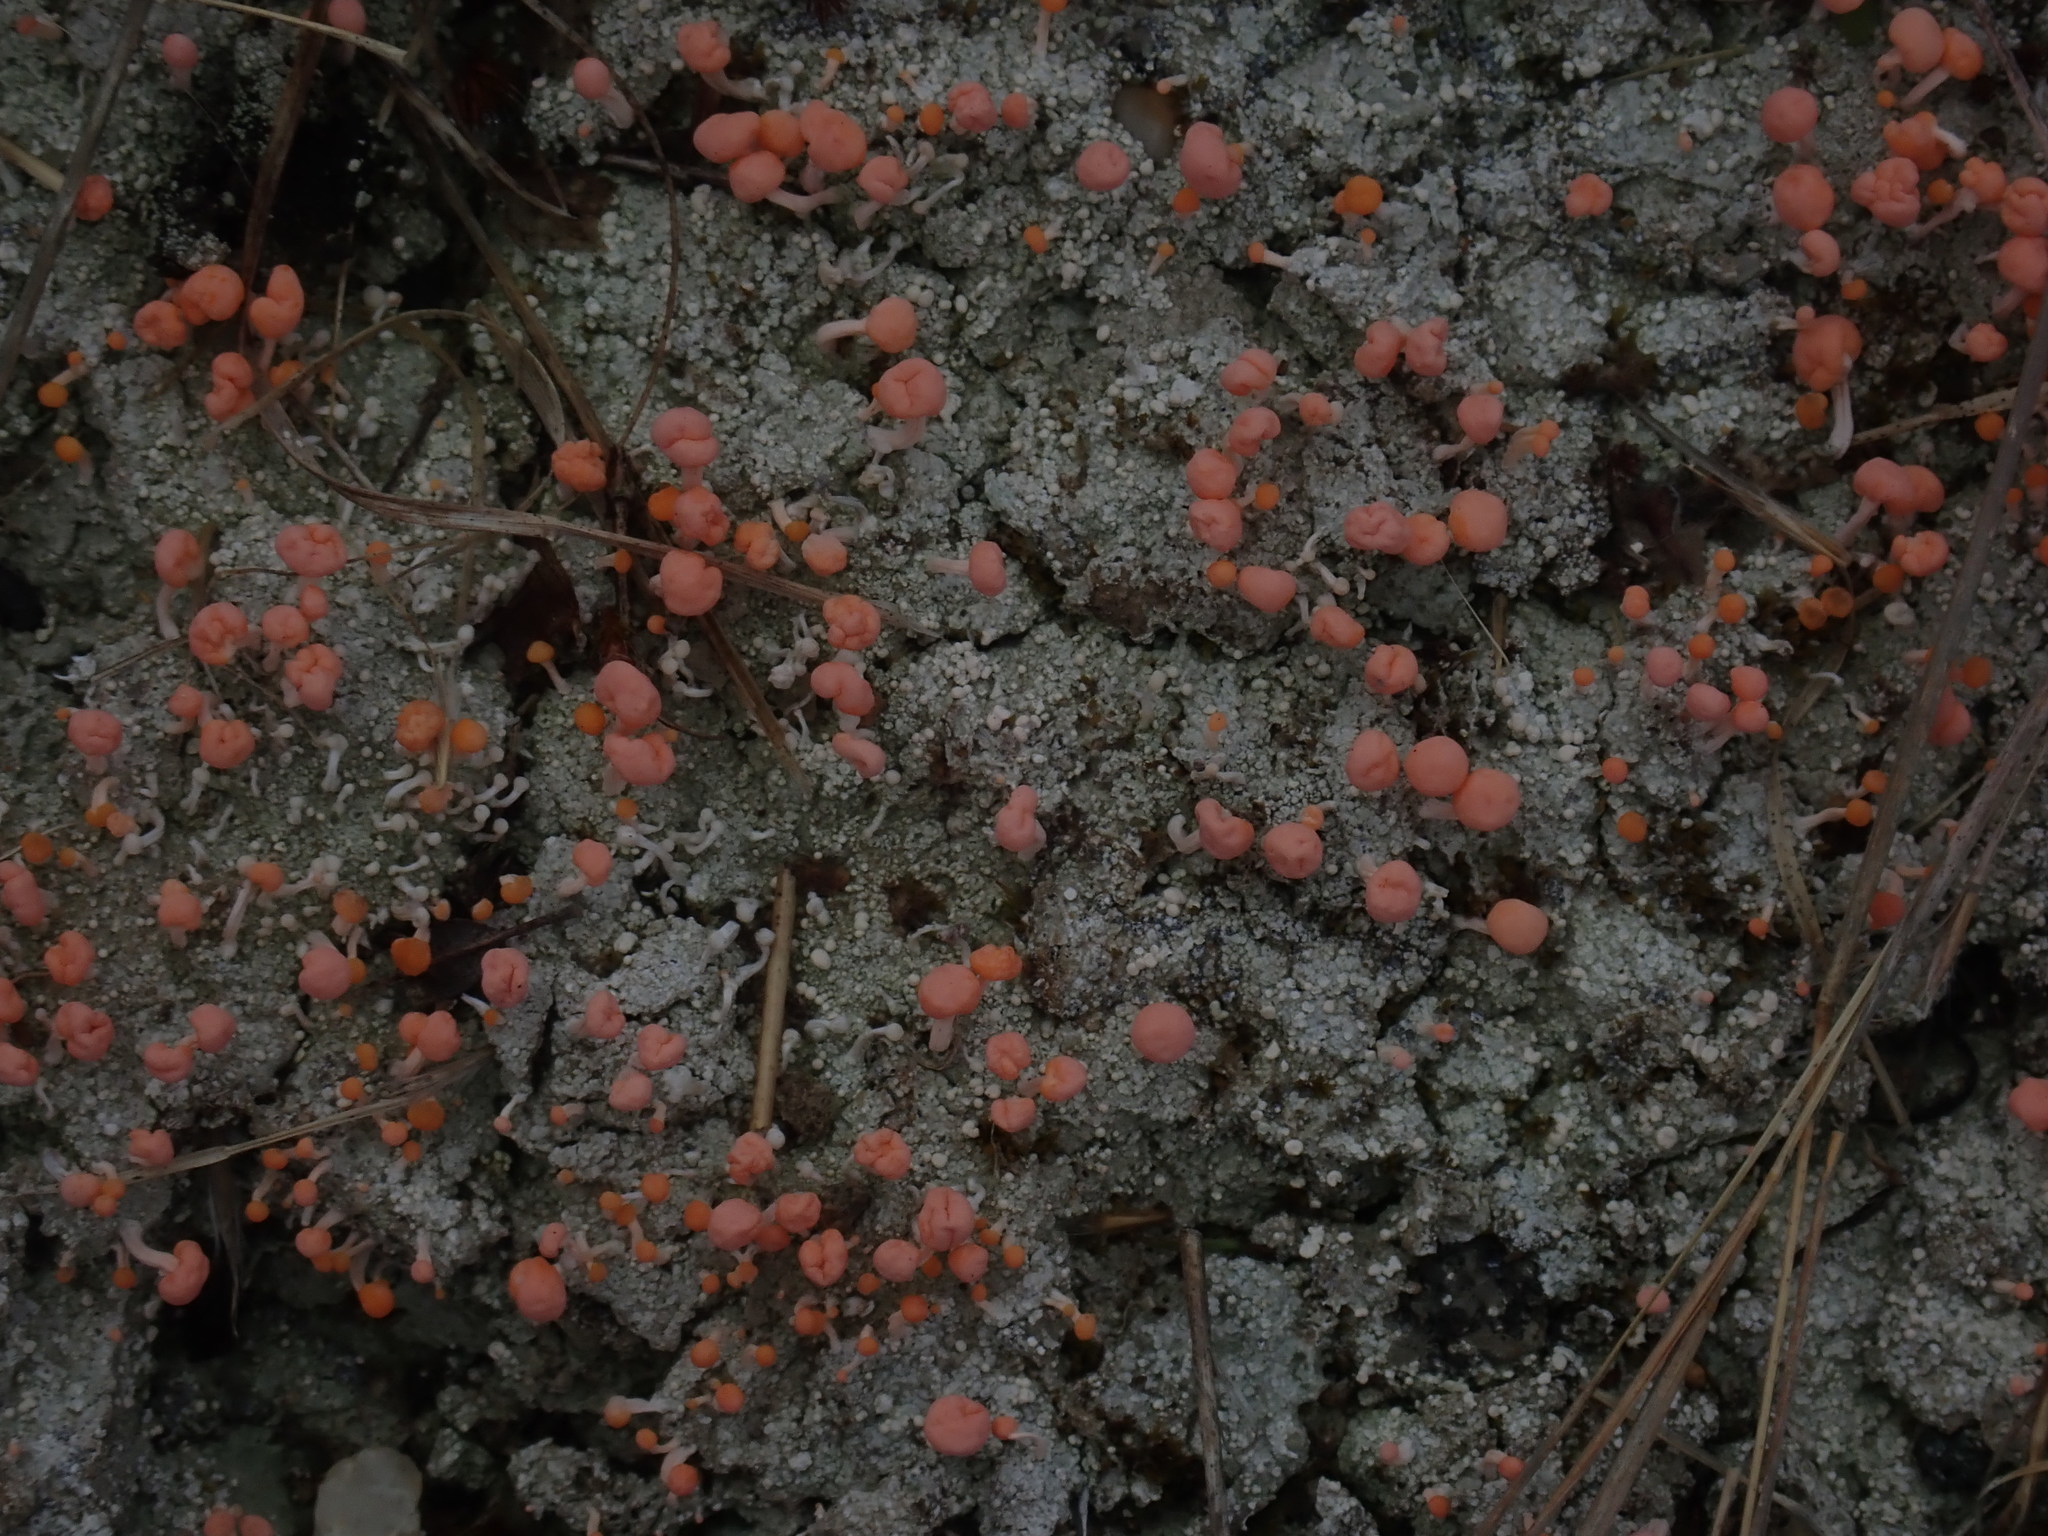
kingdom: Fungi
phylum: Ascomycota
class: Lecanoromycetes
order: Pertusariales
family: Icmadophilaceae
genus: Dibaeis
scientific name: Dibaeis baeomyces
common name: Pink earth lichen
